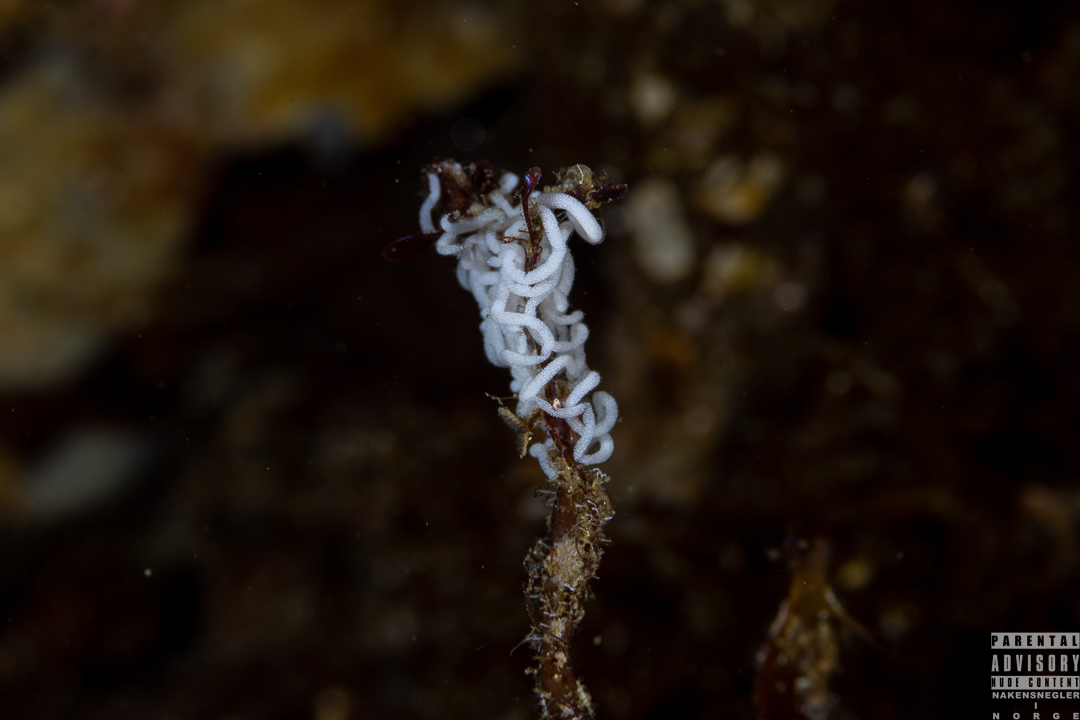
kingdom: Animalia
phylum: Mollusca
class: Gastropoda
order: Nudibranchia
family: Dendronotidae
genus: Dendronotus
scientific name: Dendronotus lacteus
